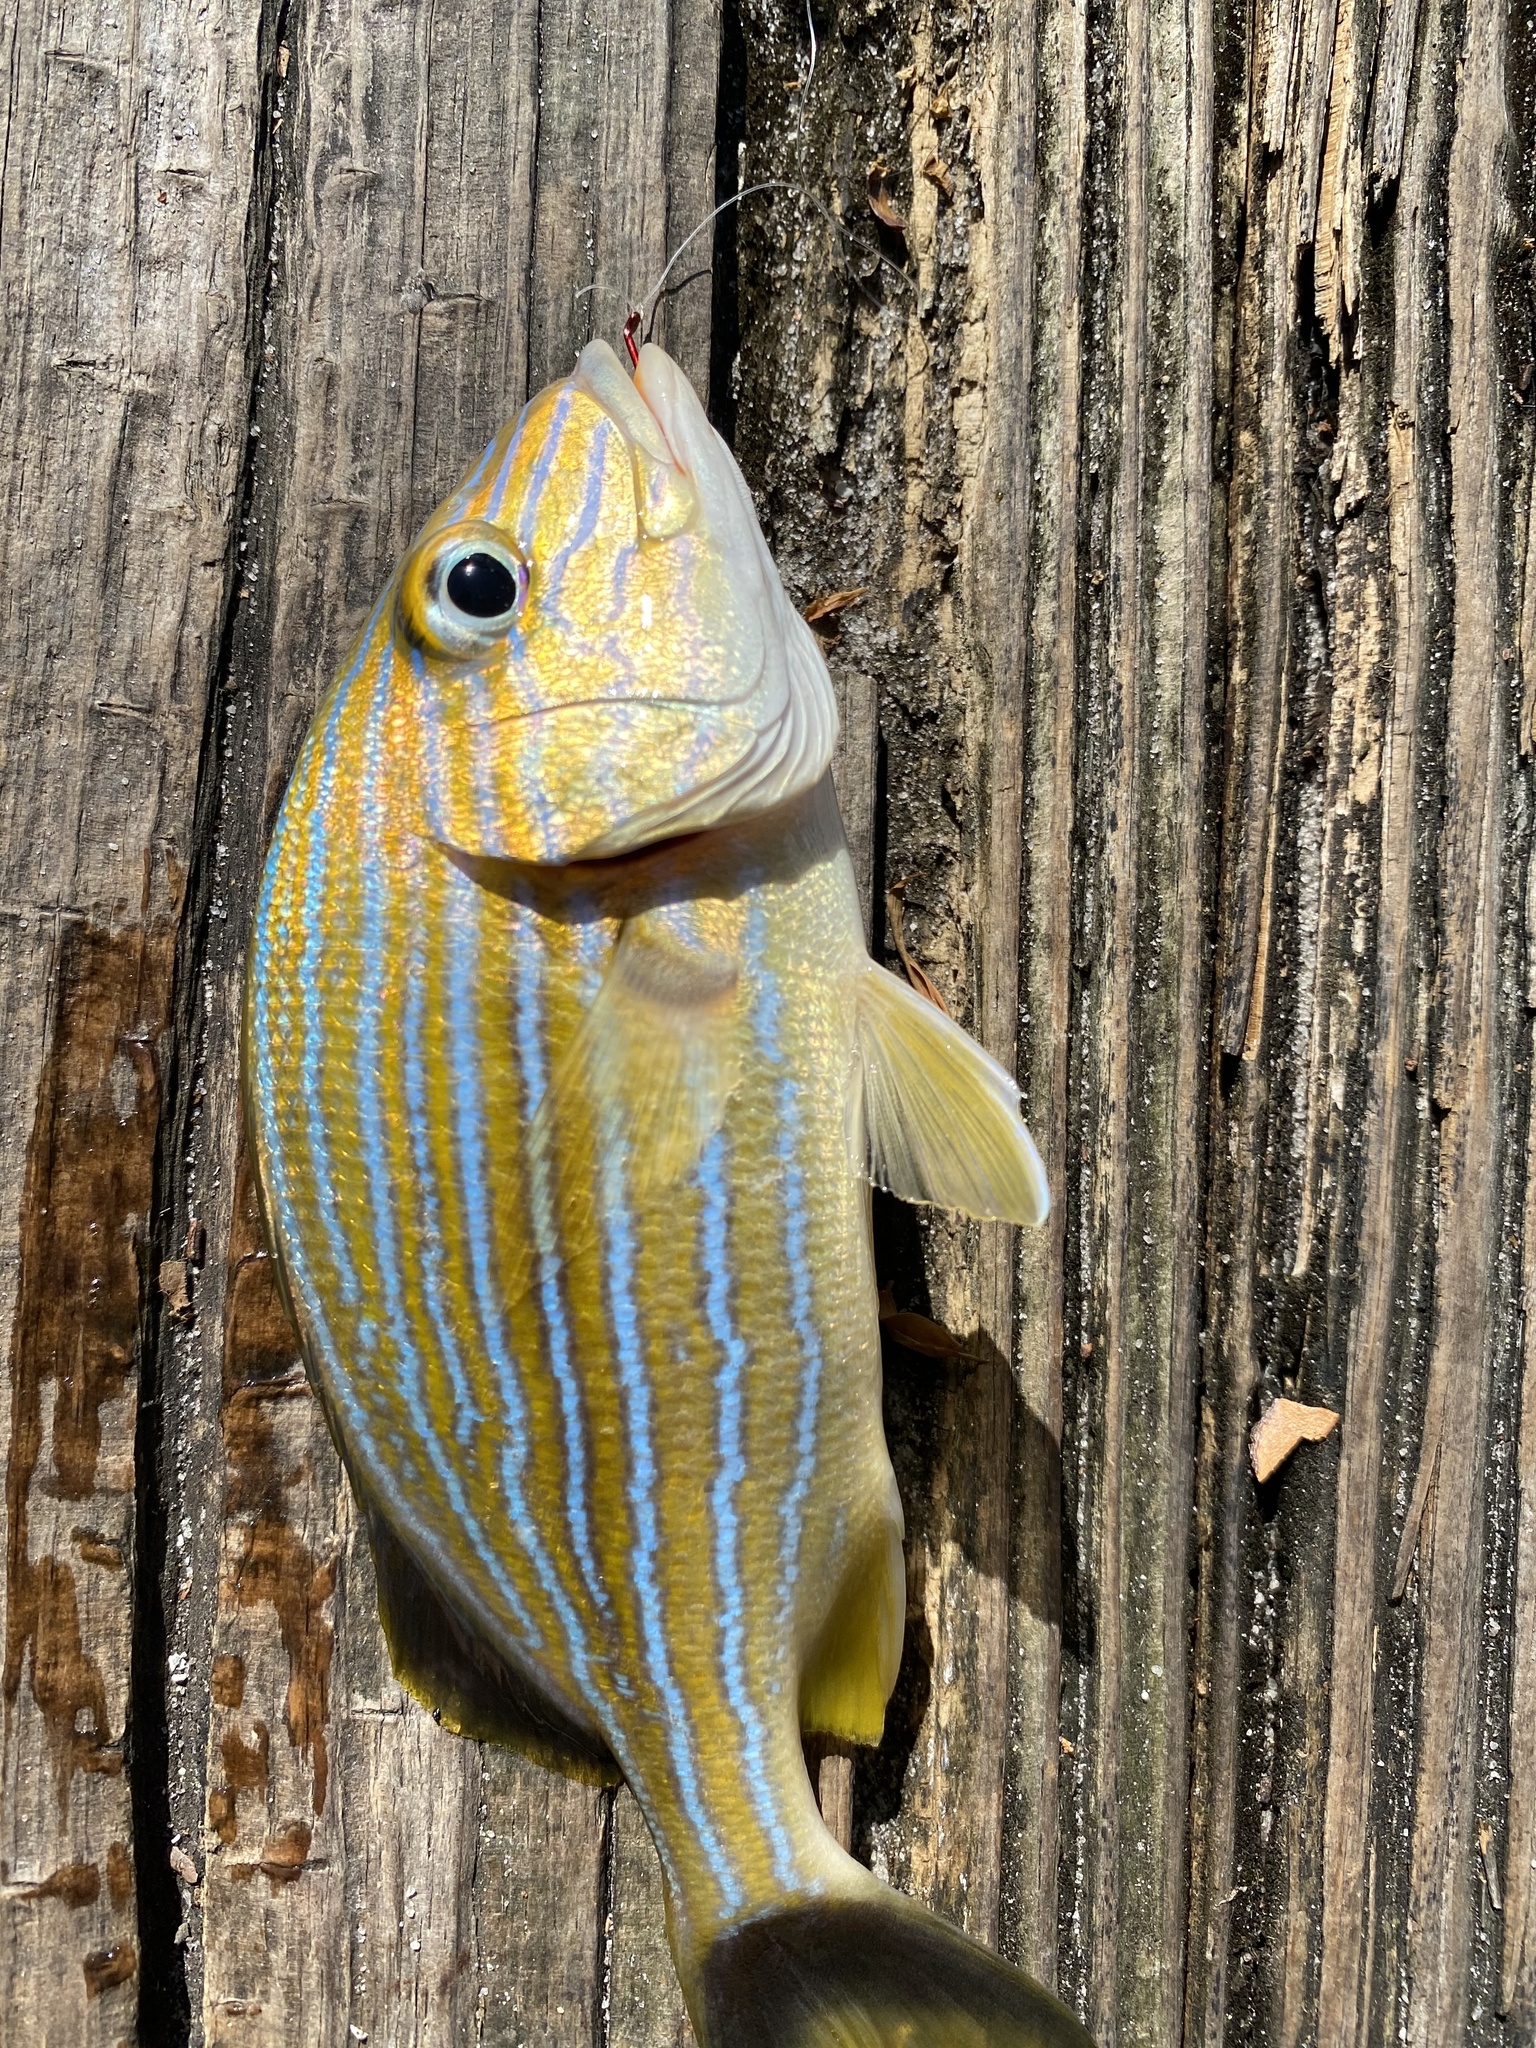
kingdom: Animalia
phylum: Chordata
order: Perciformes
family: Haemulidae
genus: Haemulon
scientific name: Haemulon sciurus
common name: Bluestriped grunt
